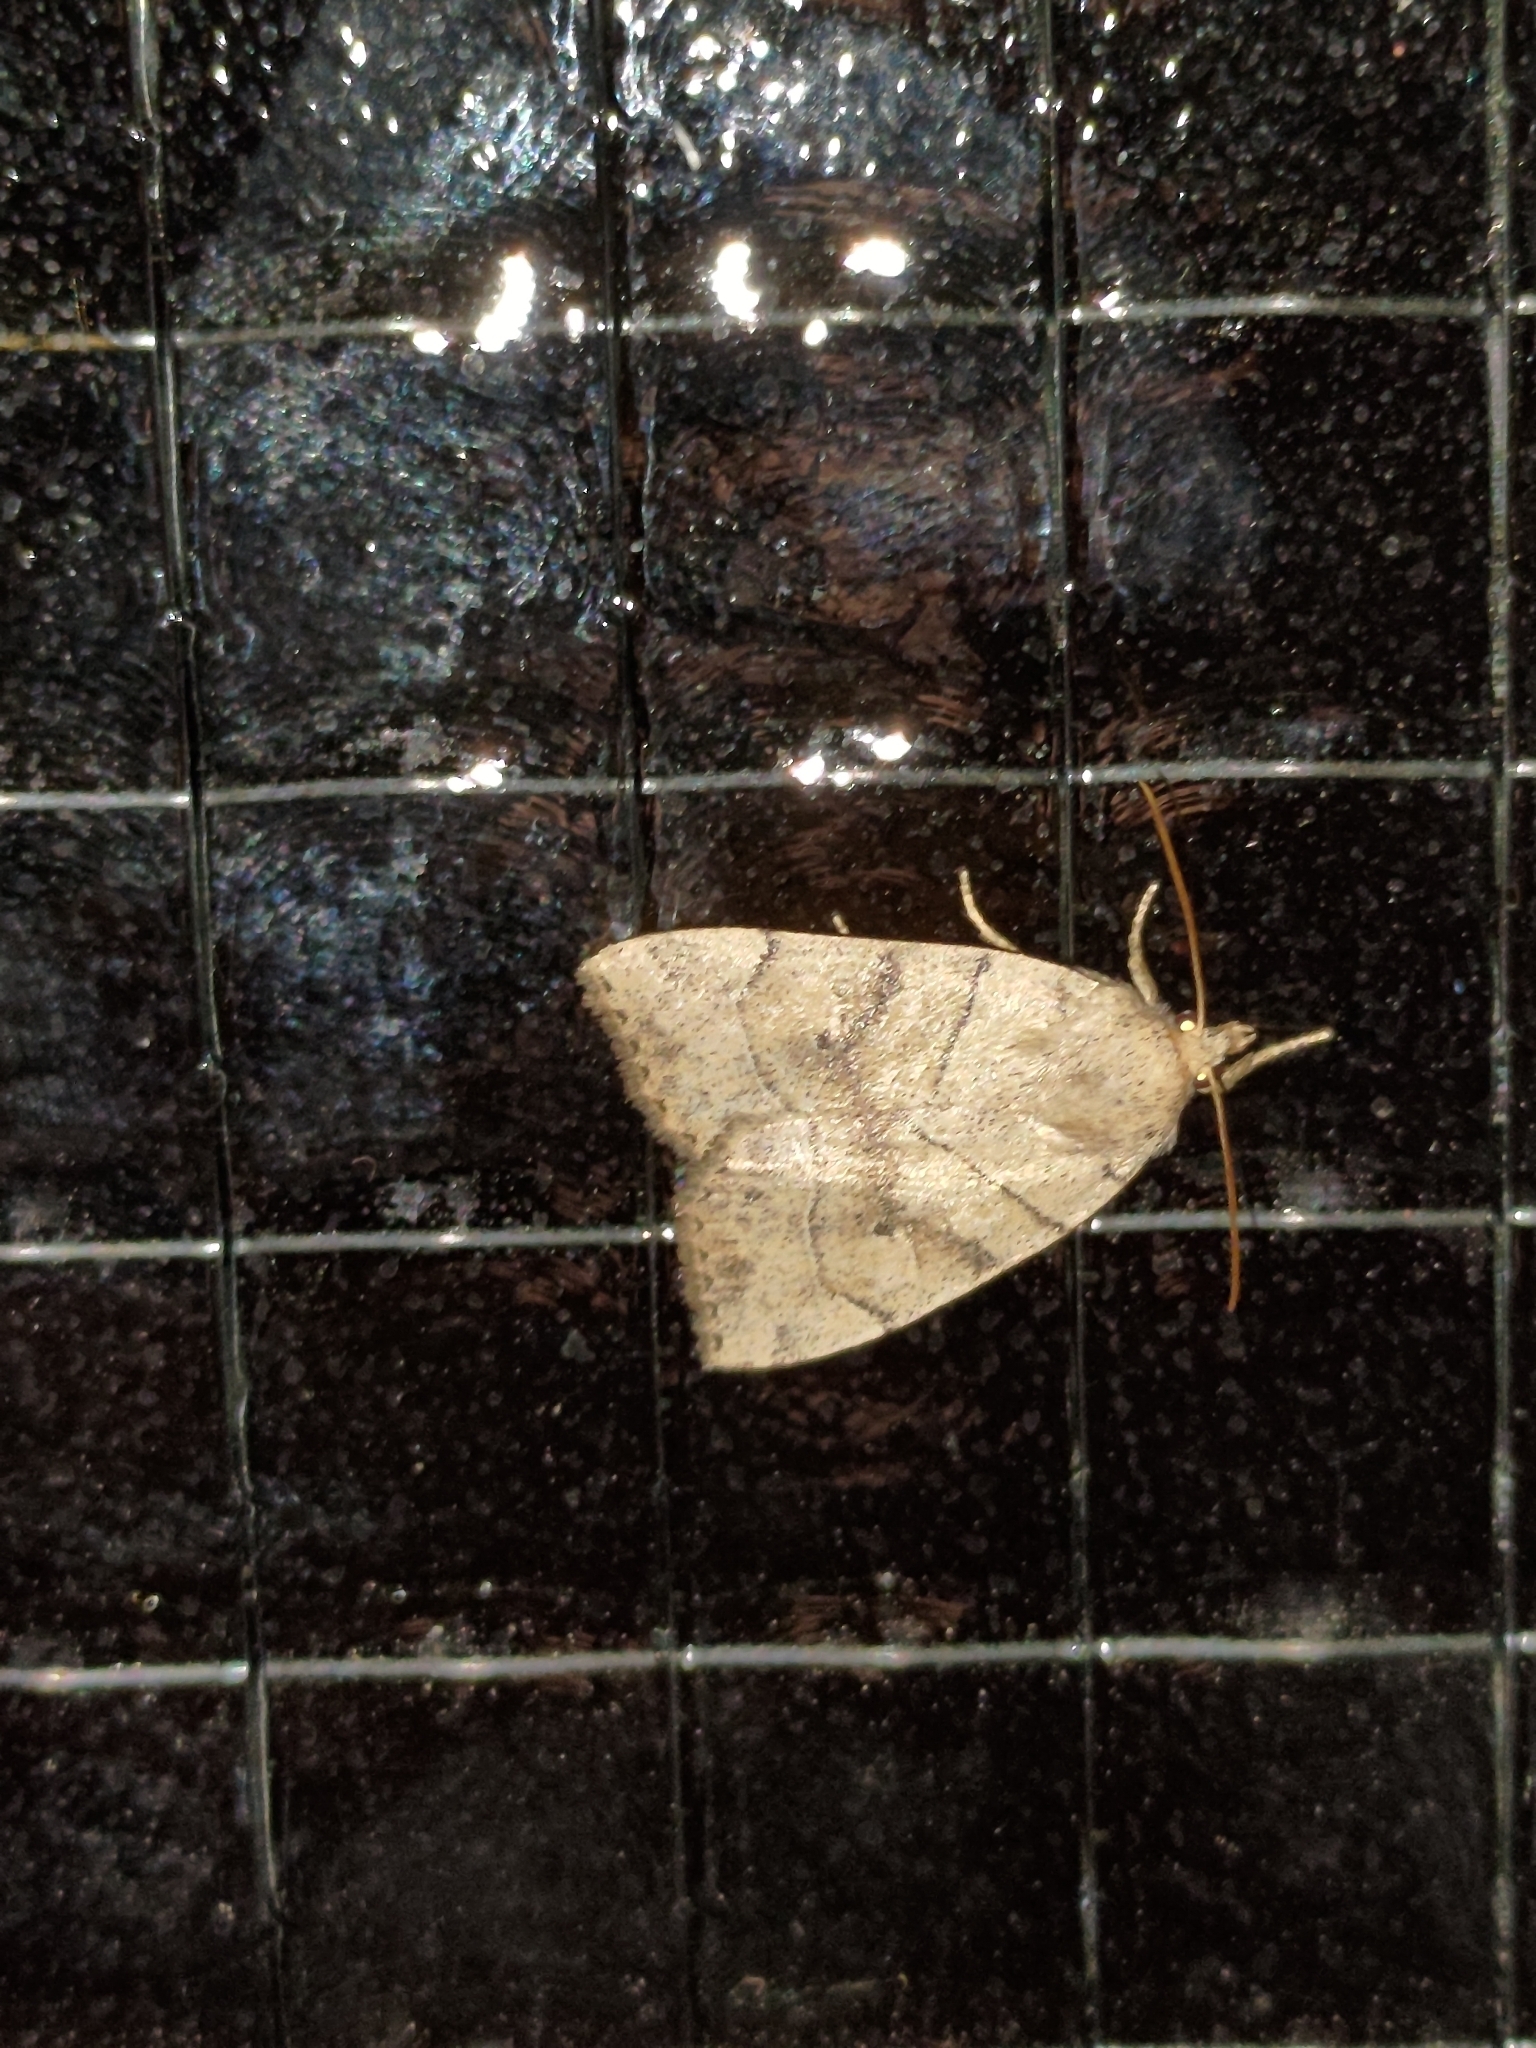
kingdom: Animalia
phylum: Arthropoda
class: Insecta
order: Lepidoptera
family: Noctuidae
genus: Cosmia
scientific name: Cosmia trapezina
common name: Dun-bar
